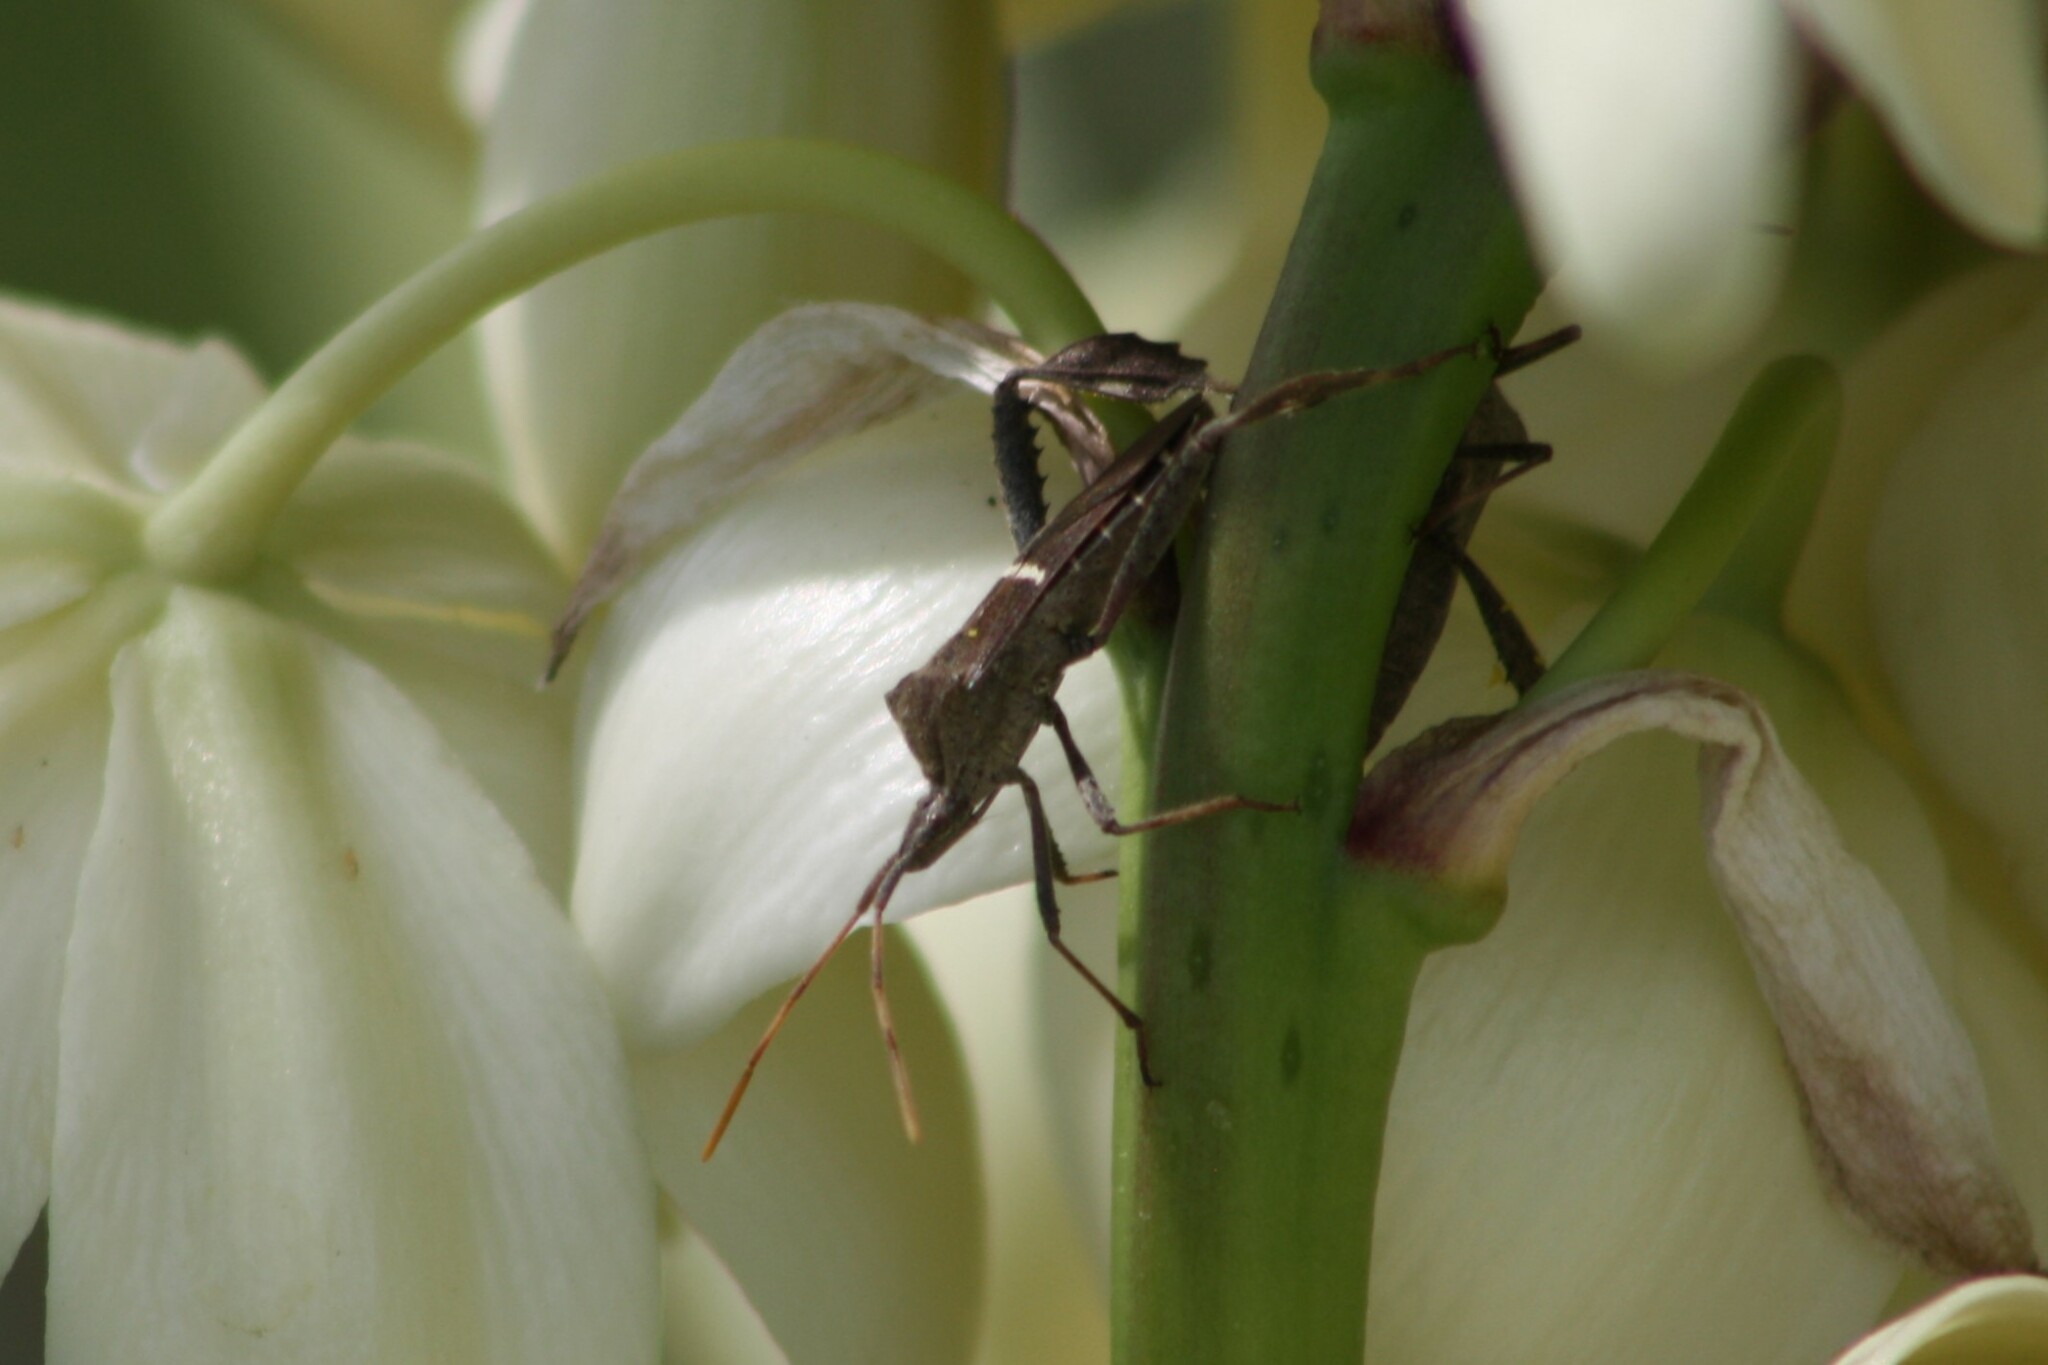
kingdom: Animalia
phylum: Arthropoda
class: Insecta
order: Hemiptera
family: Coreidae
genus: Leptoglossus
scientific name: Leptoglossus phyllopus
